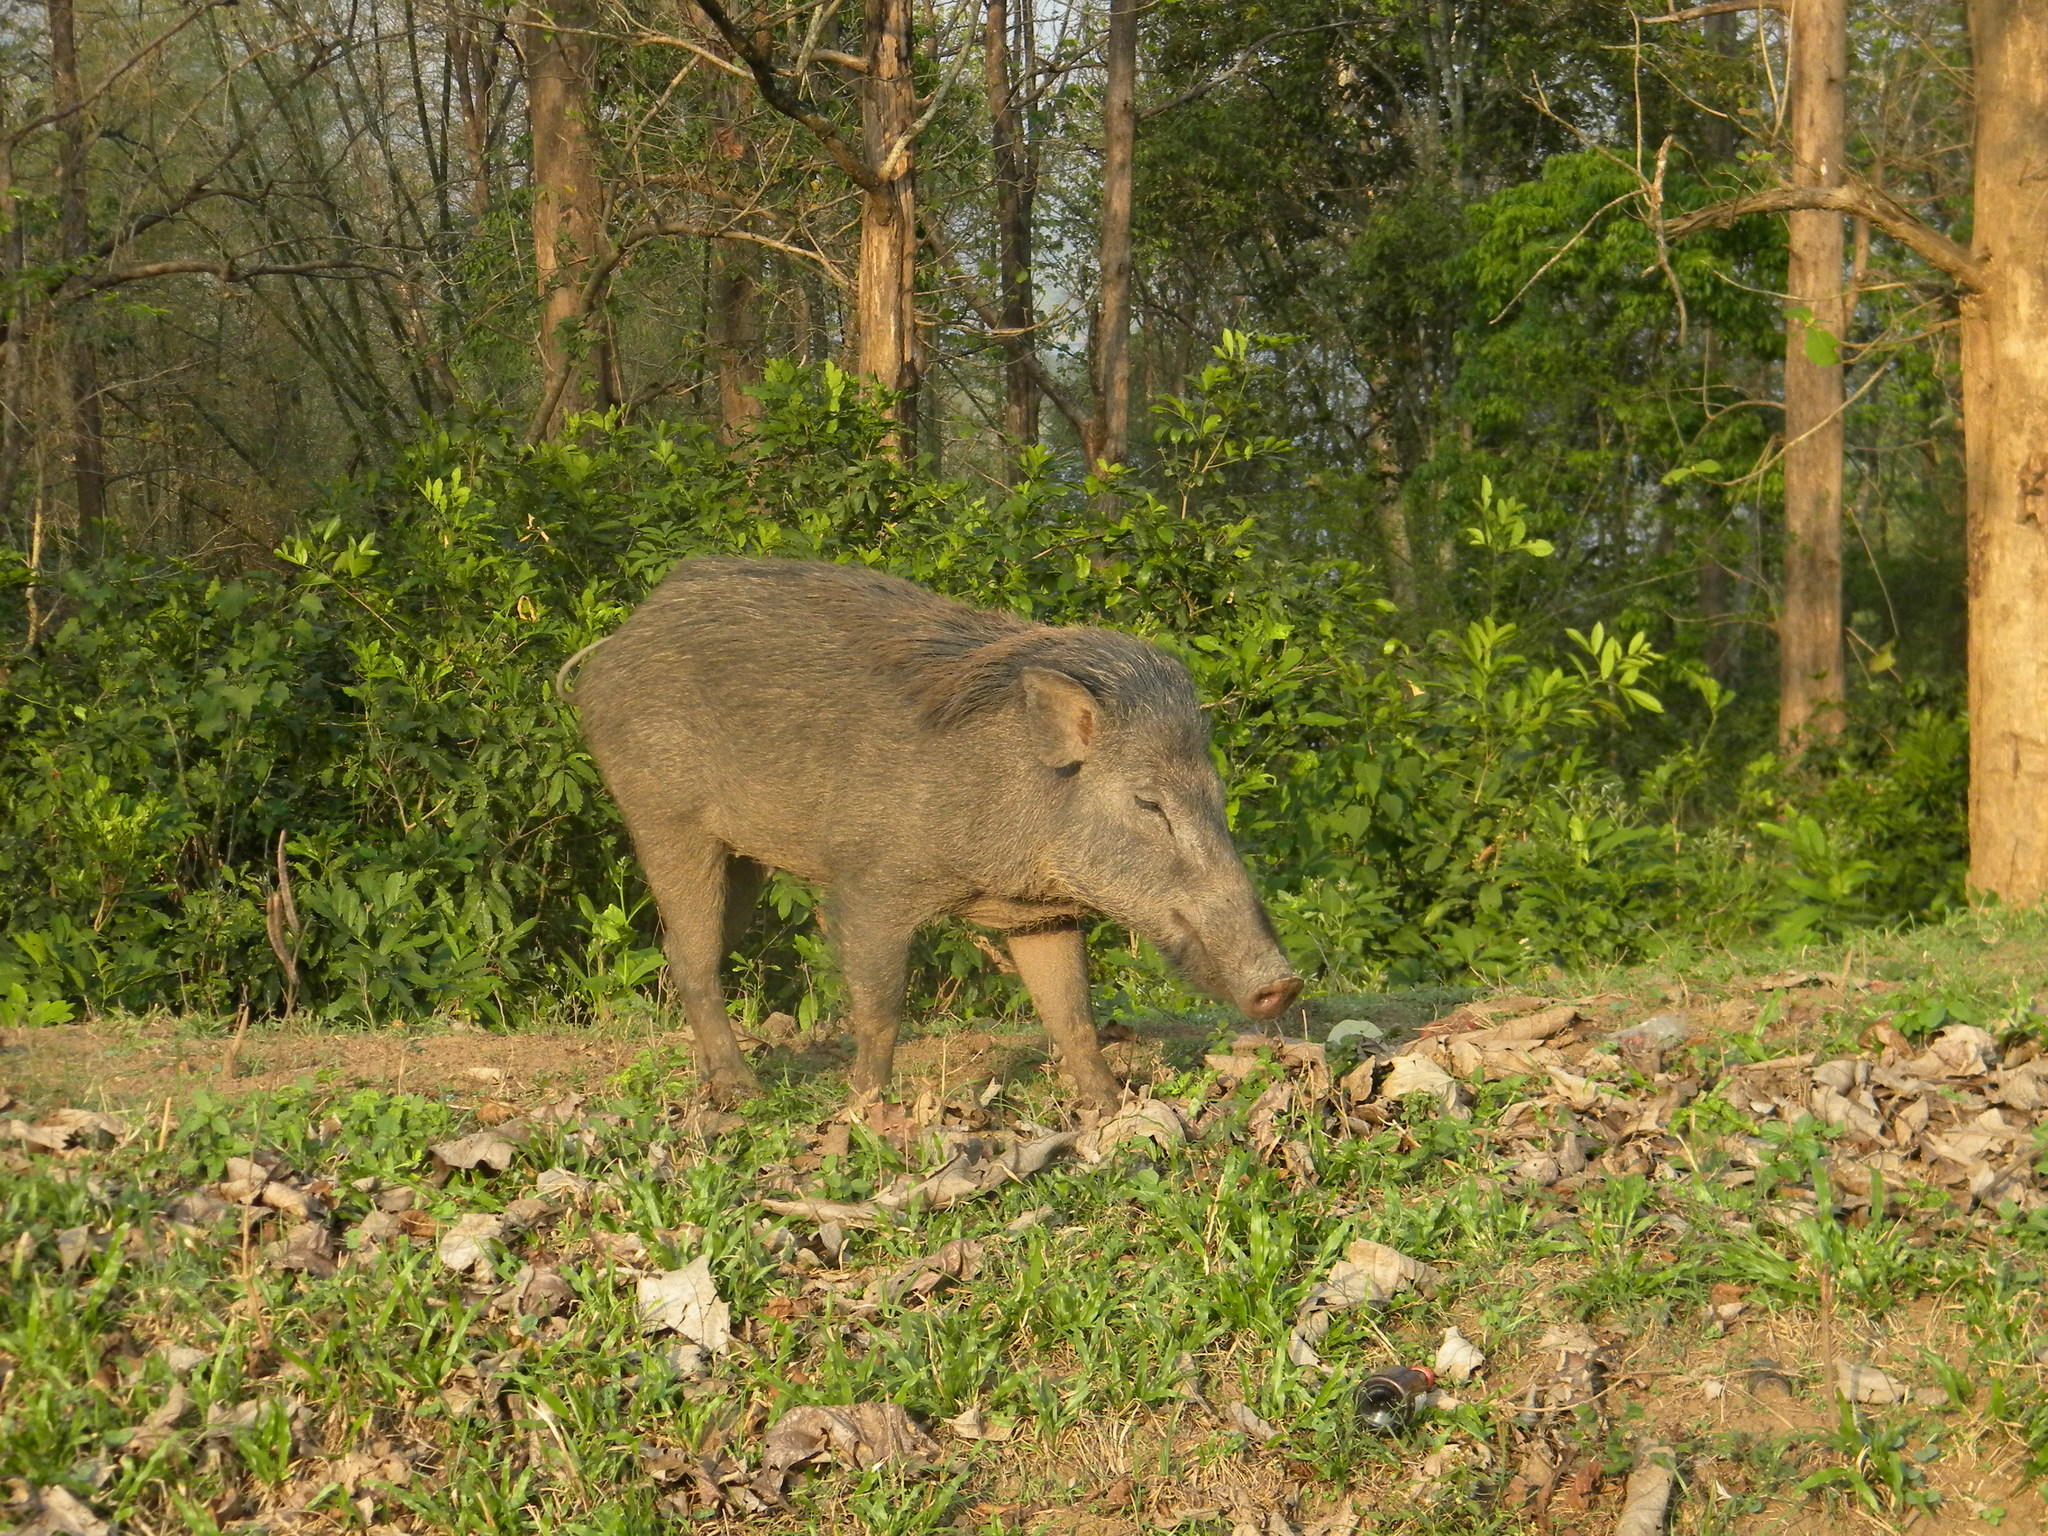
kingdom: Animalia
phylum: Chordata
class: Mammalia
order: Artiodactyla
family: Suidae
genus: Sus
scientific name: Sus scrofa
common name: Wild boar
